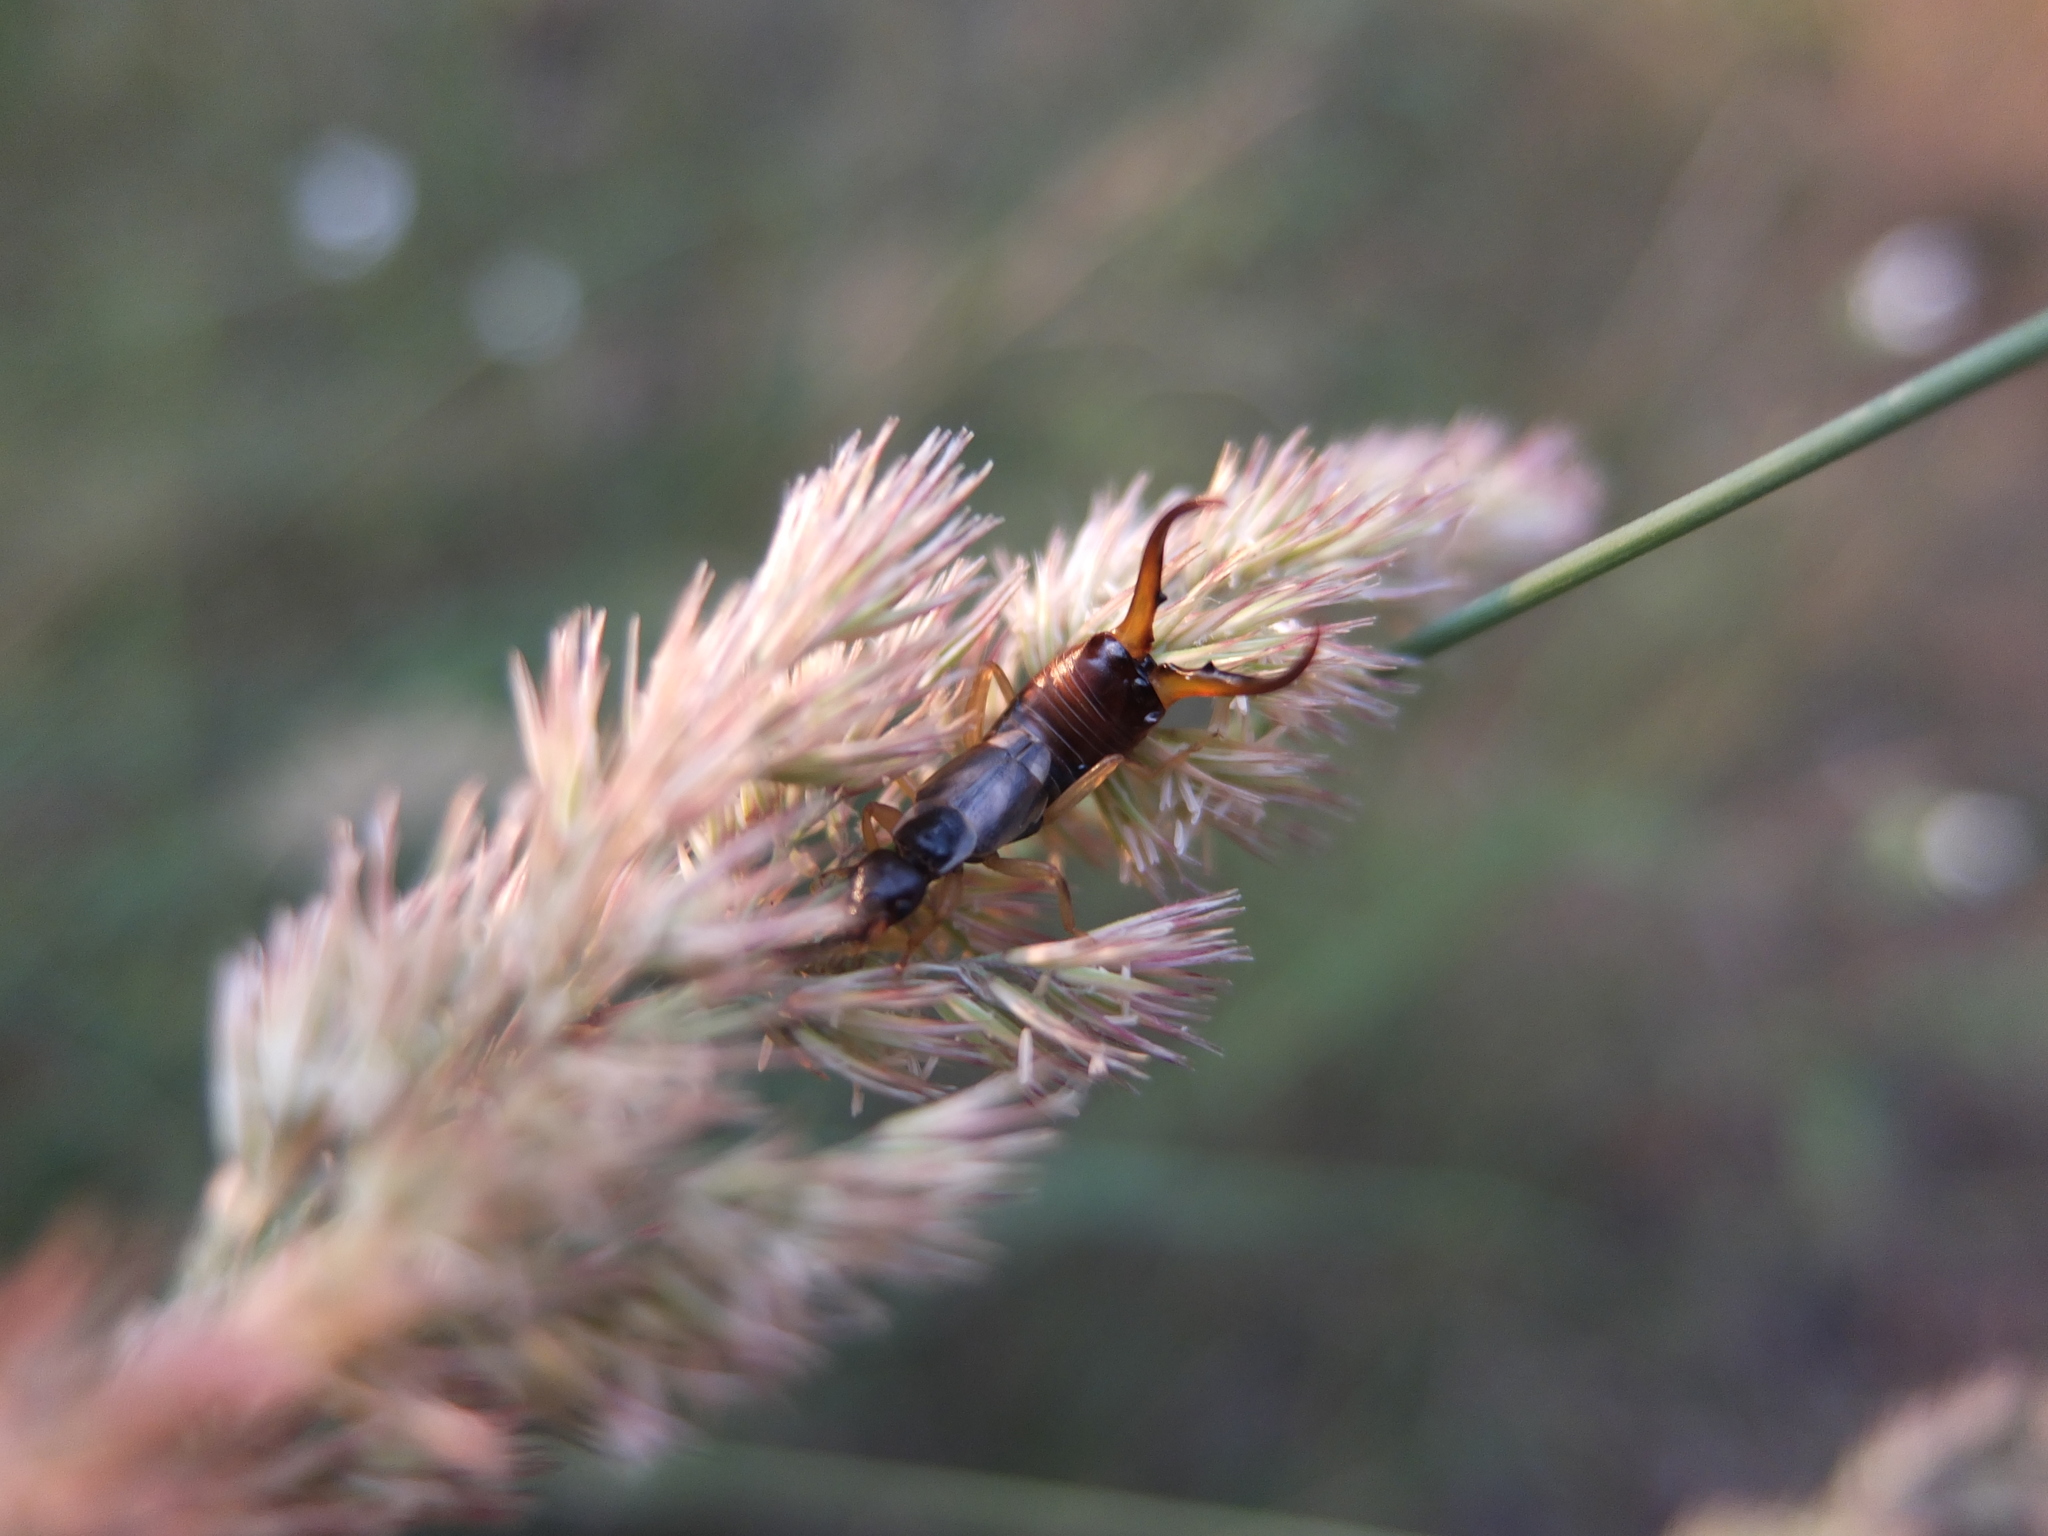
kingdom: Animalia
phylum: Arthropoda
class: Insecta
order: Dermaptera
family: Forficulidae
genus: Forficula
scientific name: Forficula
